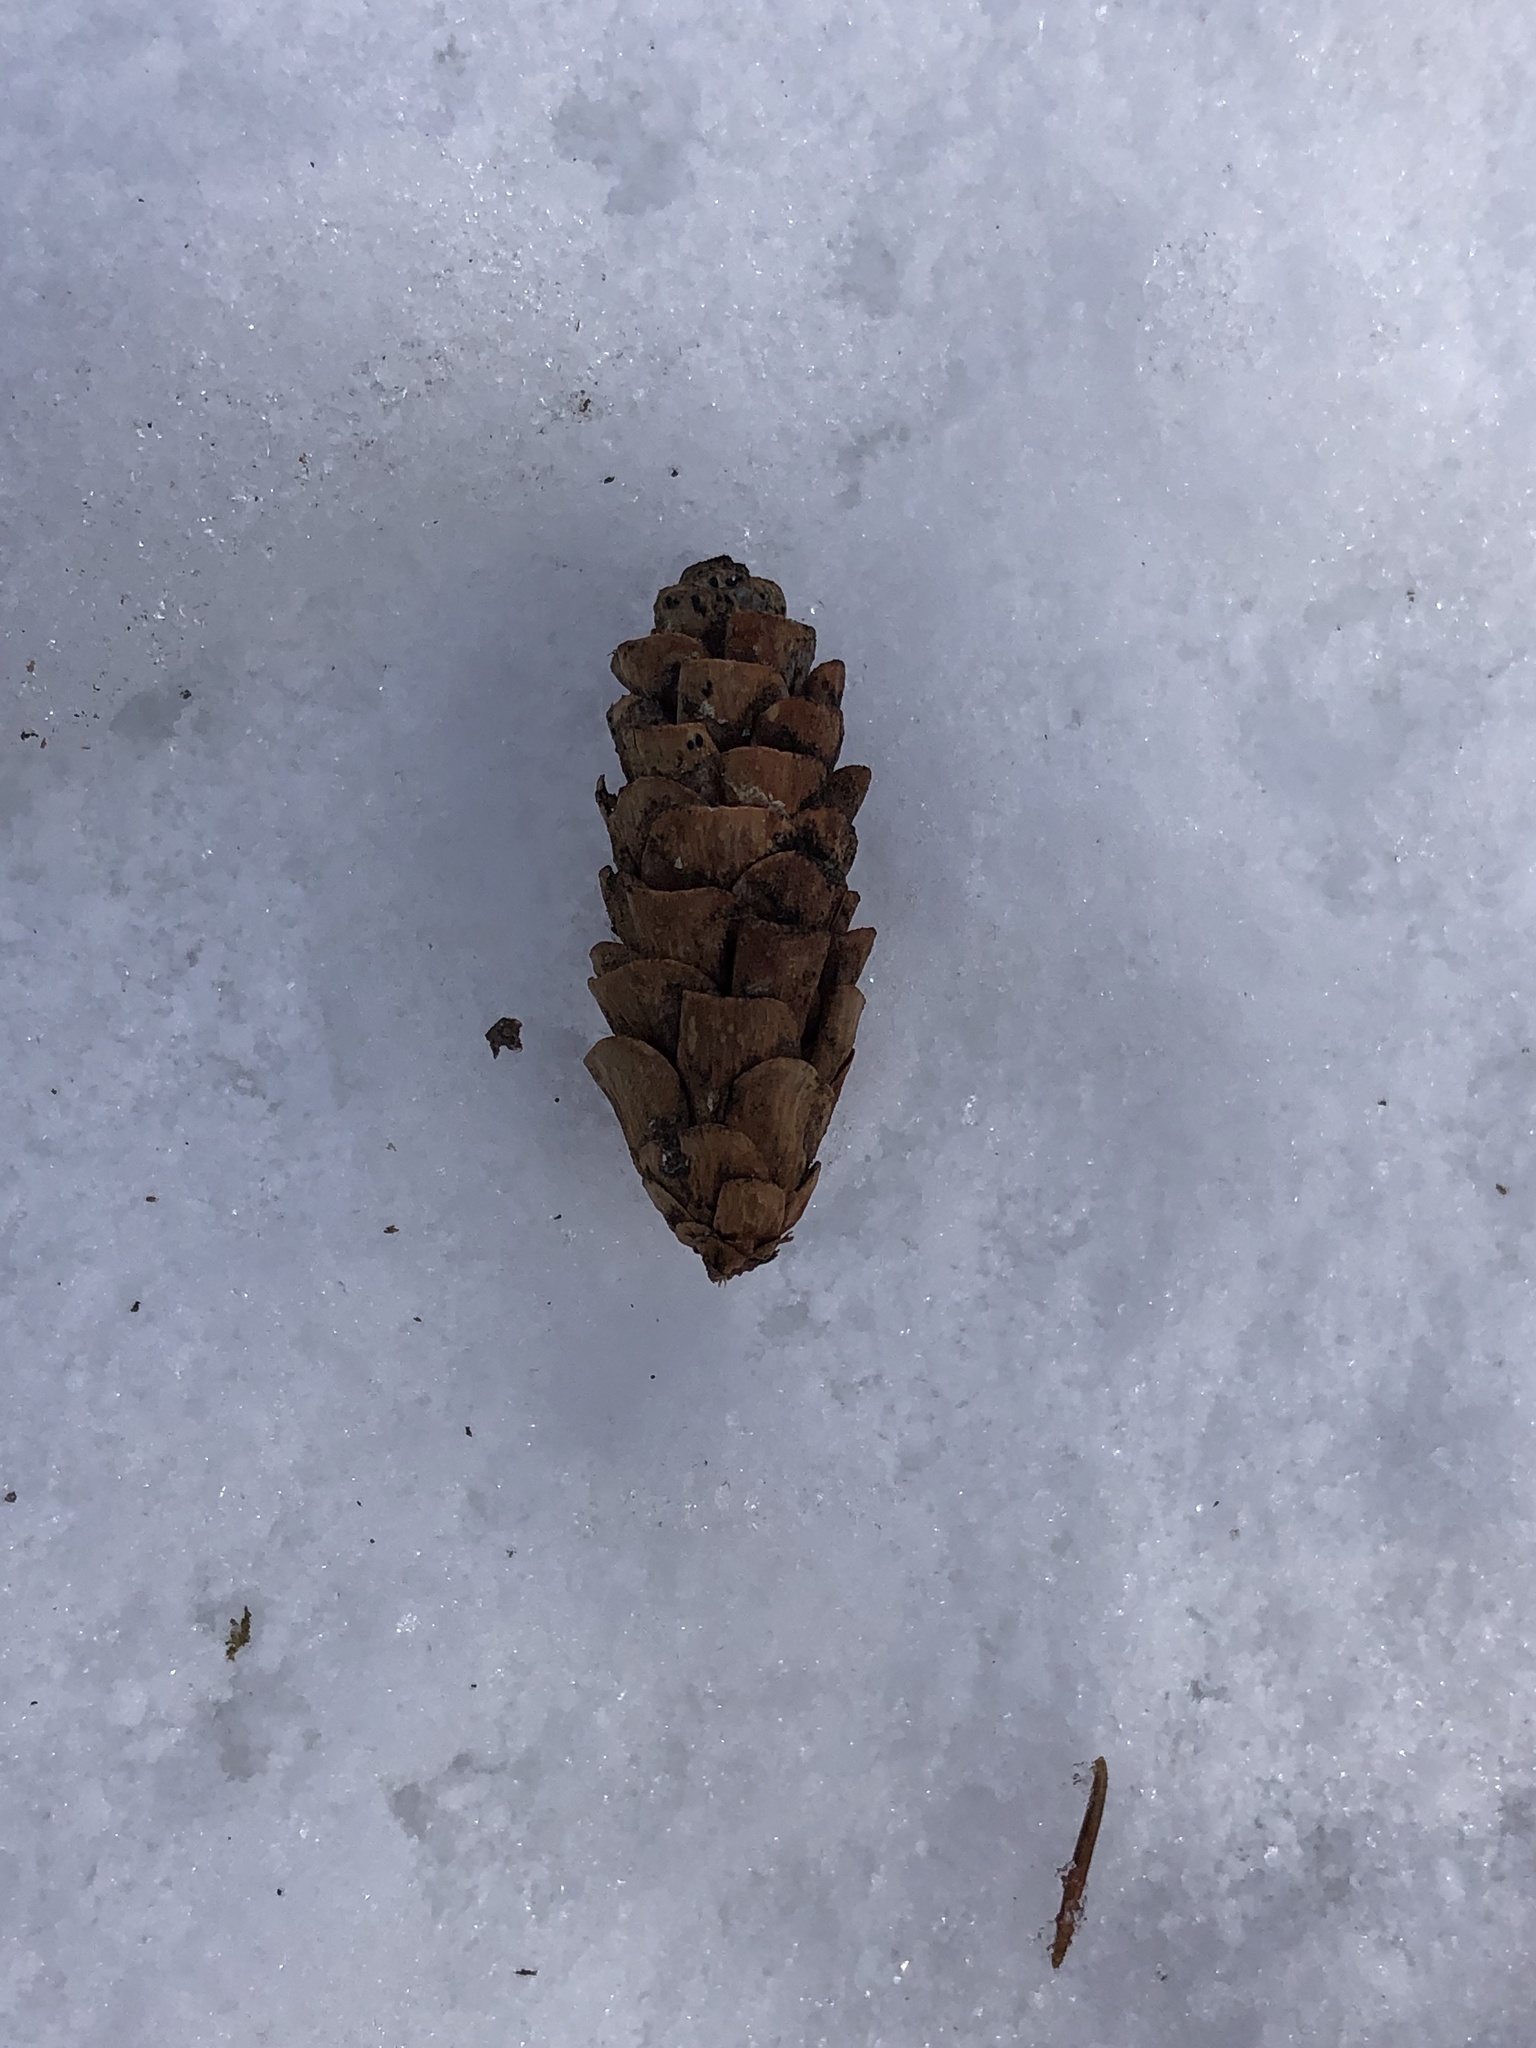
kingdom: Plantae
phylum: Tracheophyta
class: Pinopsida
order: Pinales
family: Pinaceae
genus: Picea
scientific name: Picea glauca
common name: White spruce
